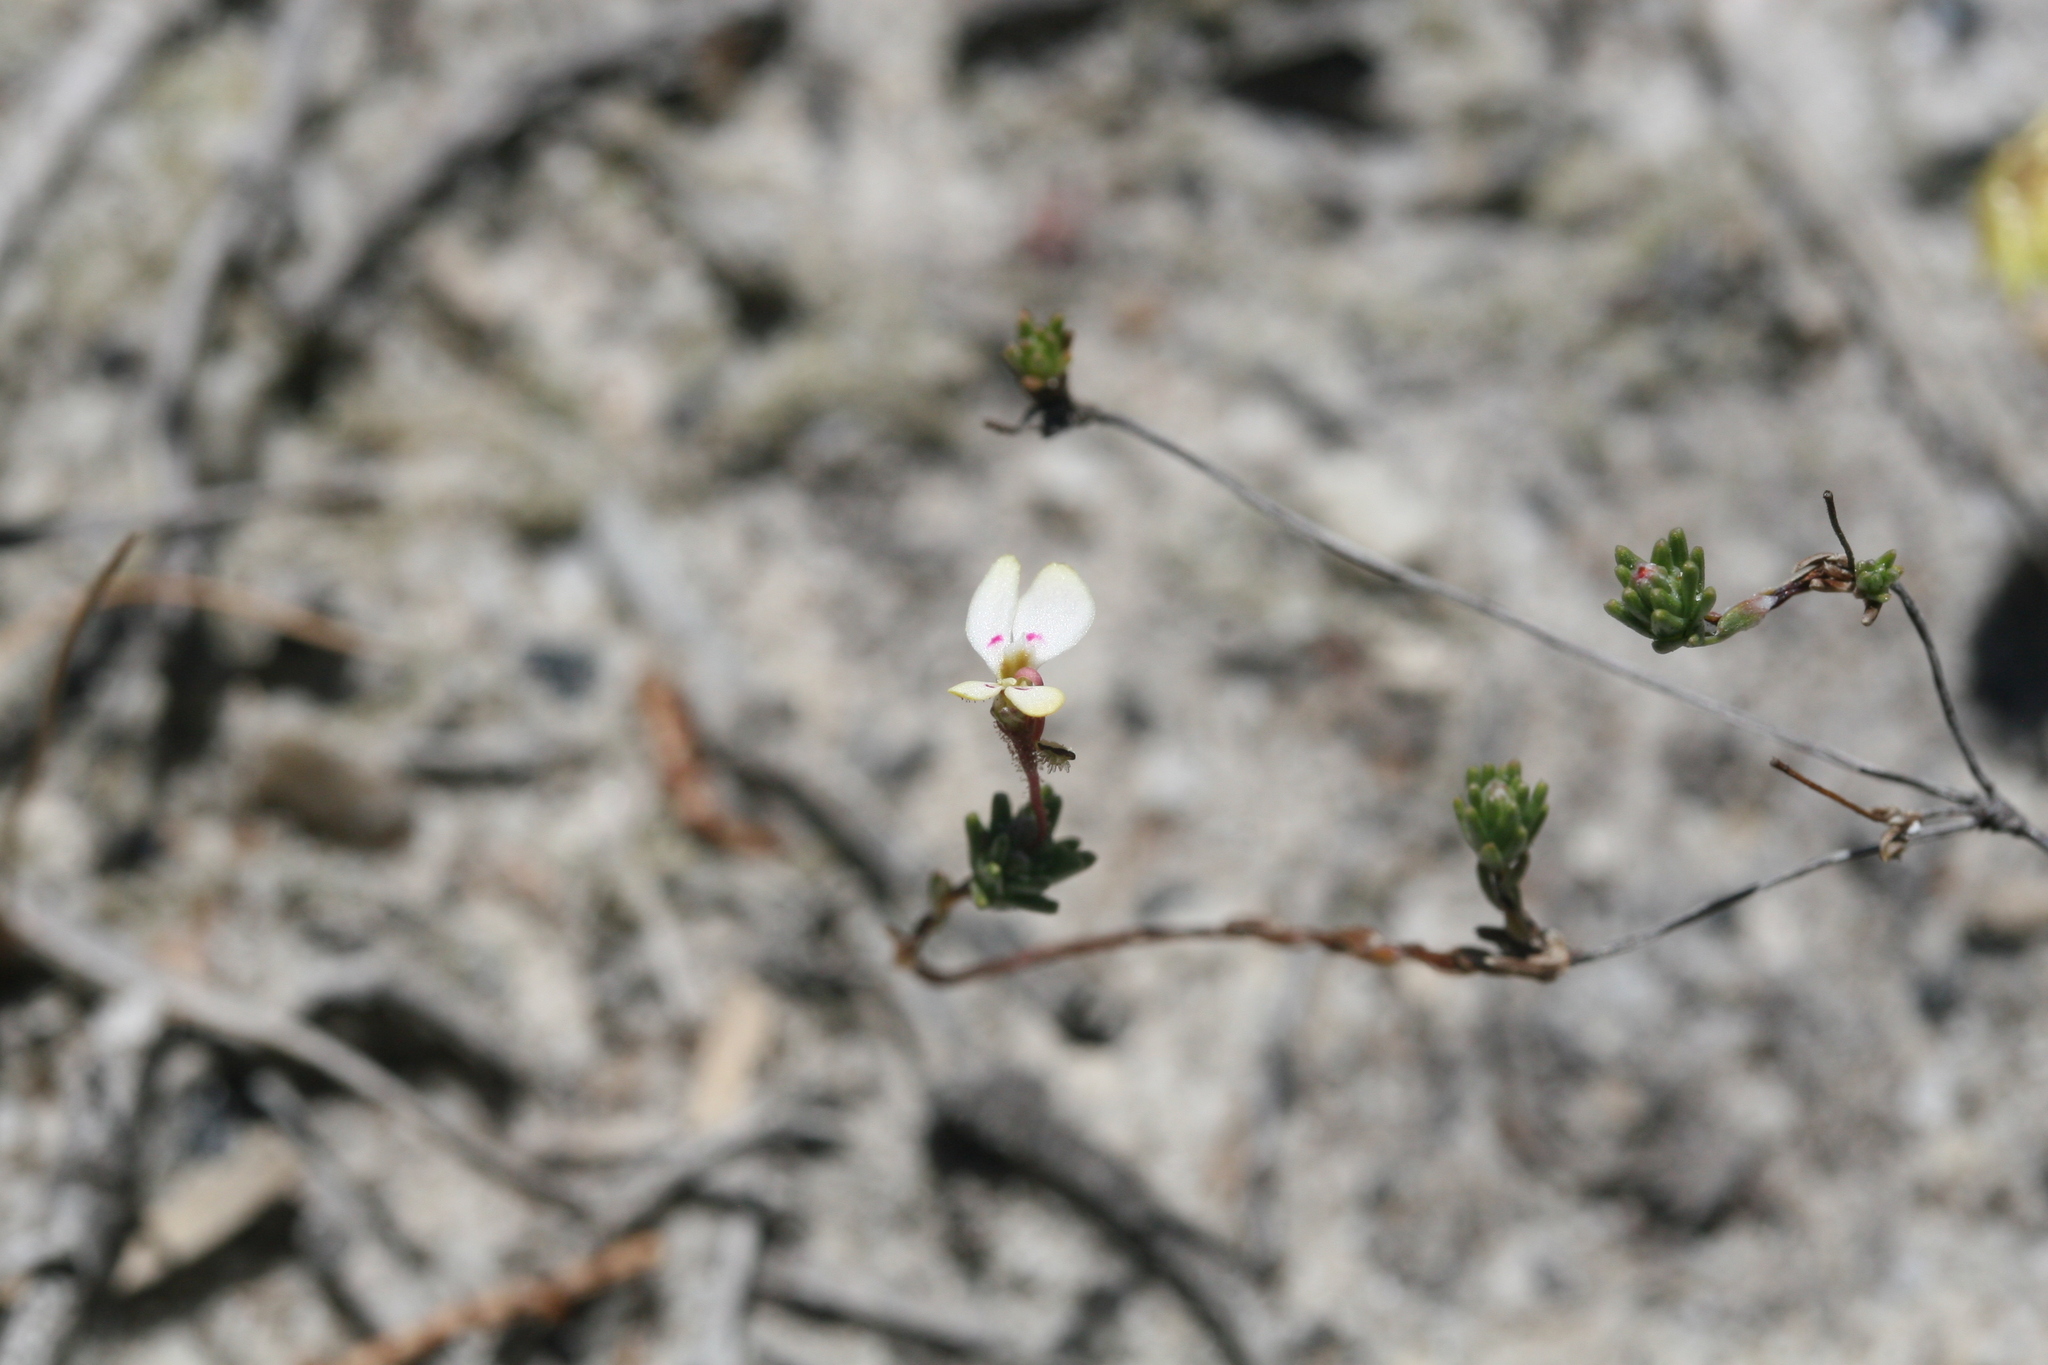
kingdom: Plantae
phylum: Tracheophyta
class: Magnoliopsida
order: Asterales
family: Stylidiaceae
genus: Stylidium
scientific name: Stylidium repens
